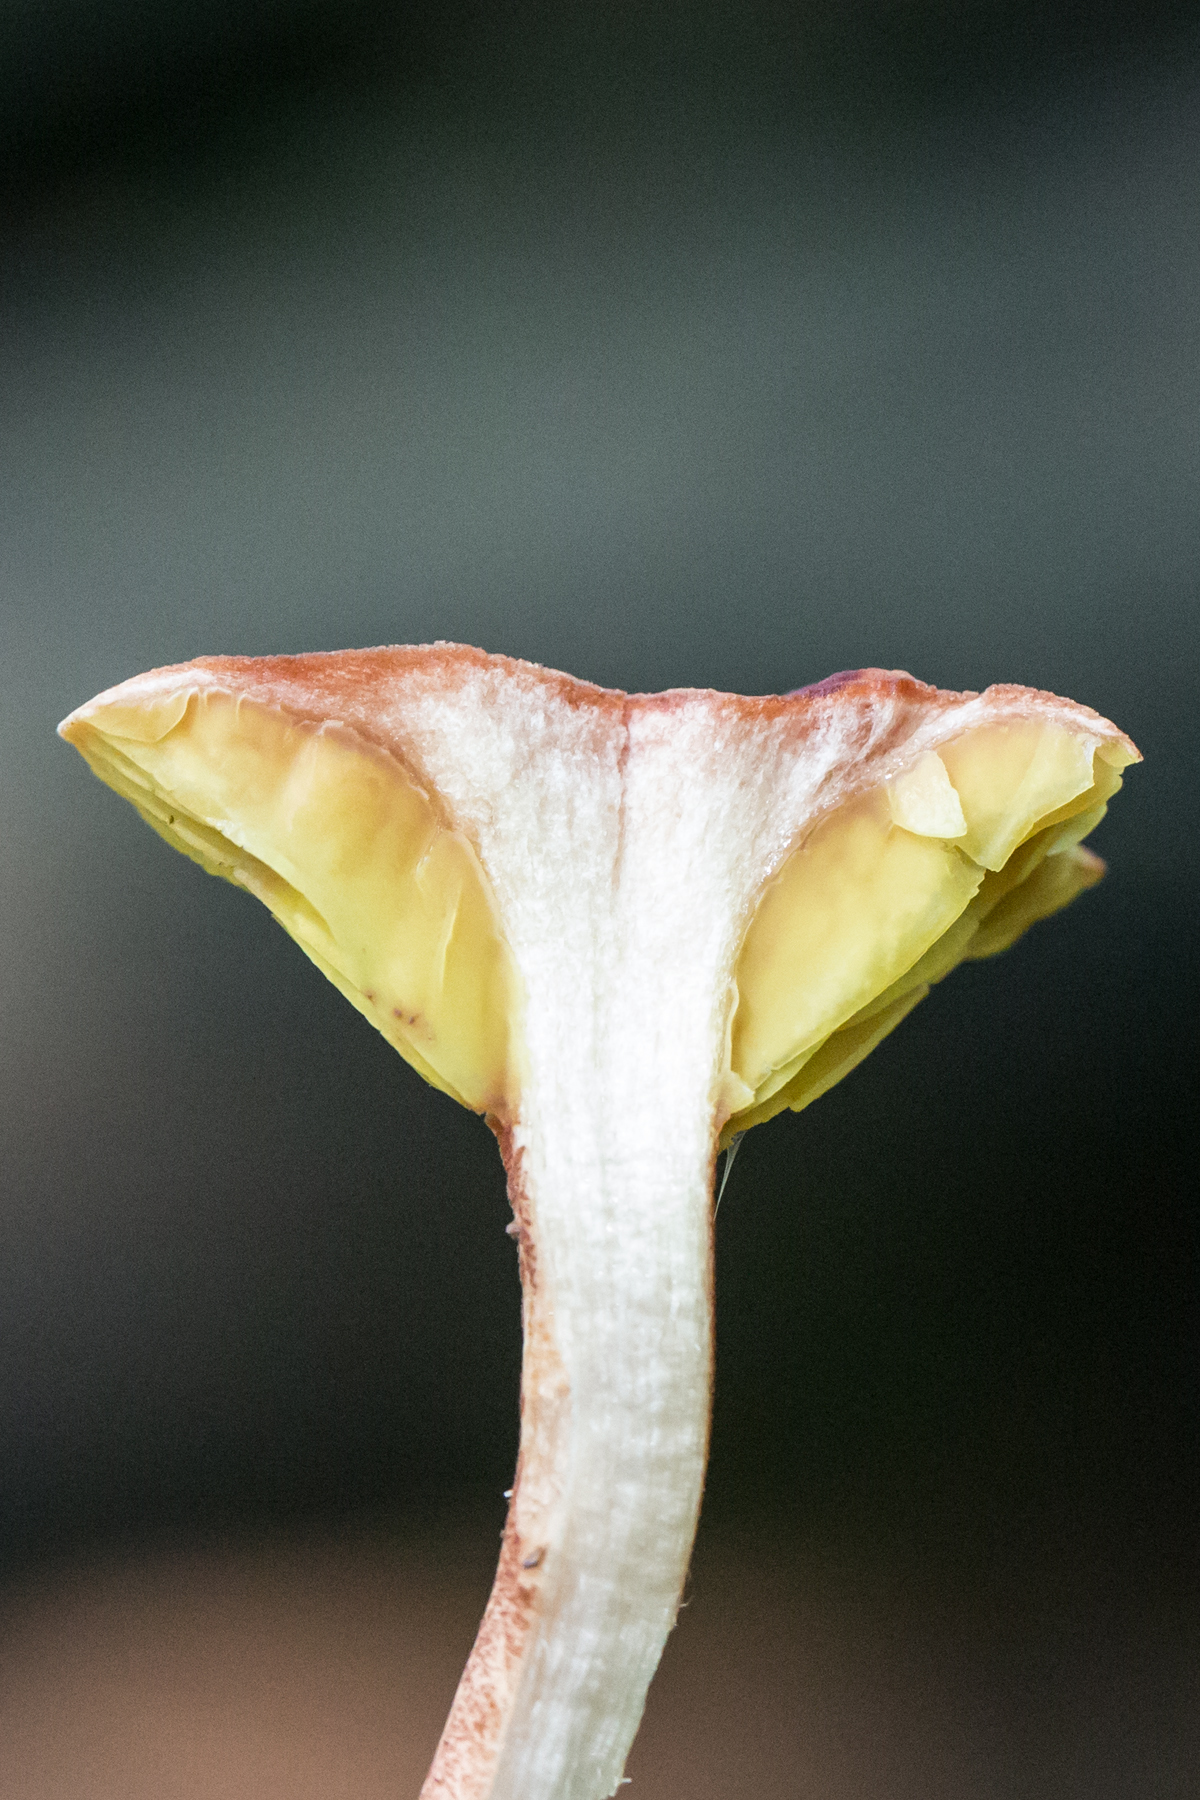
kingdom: Fungi
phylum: Basidiomycota
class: Agaricomycetes
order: Boletales
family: Boletaceae
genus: Phylloporus
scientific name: Phylloporus rhodoxanthus
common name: Golden gilled bolete
